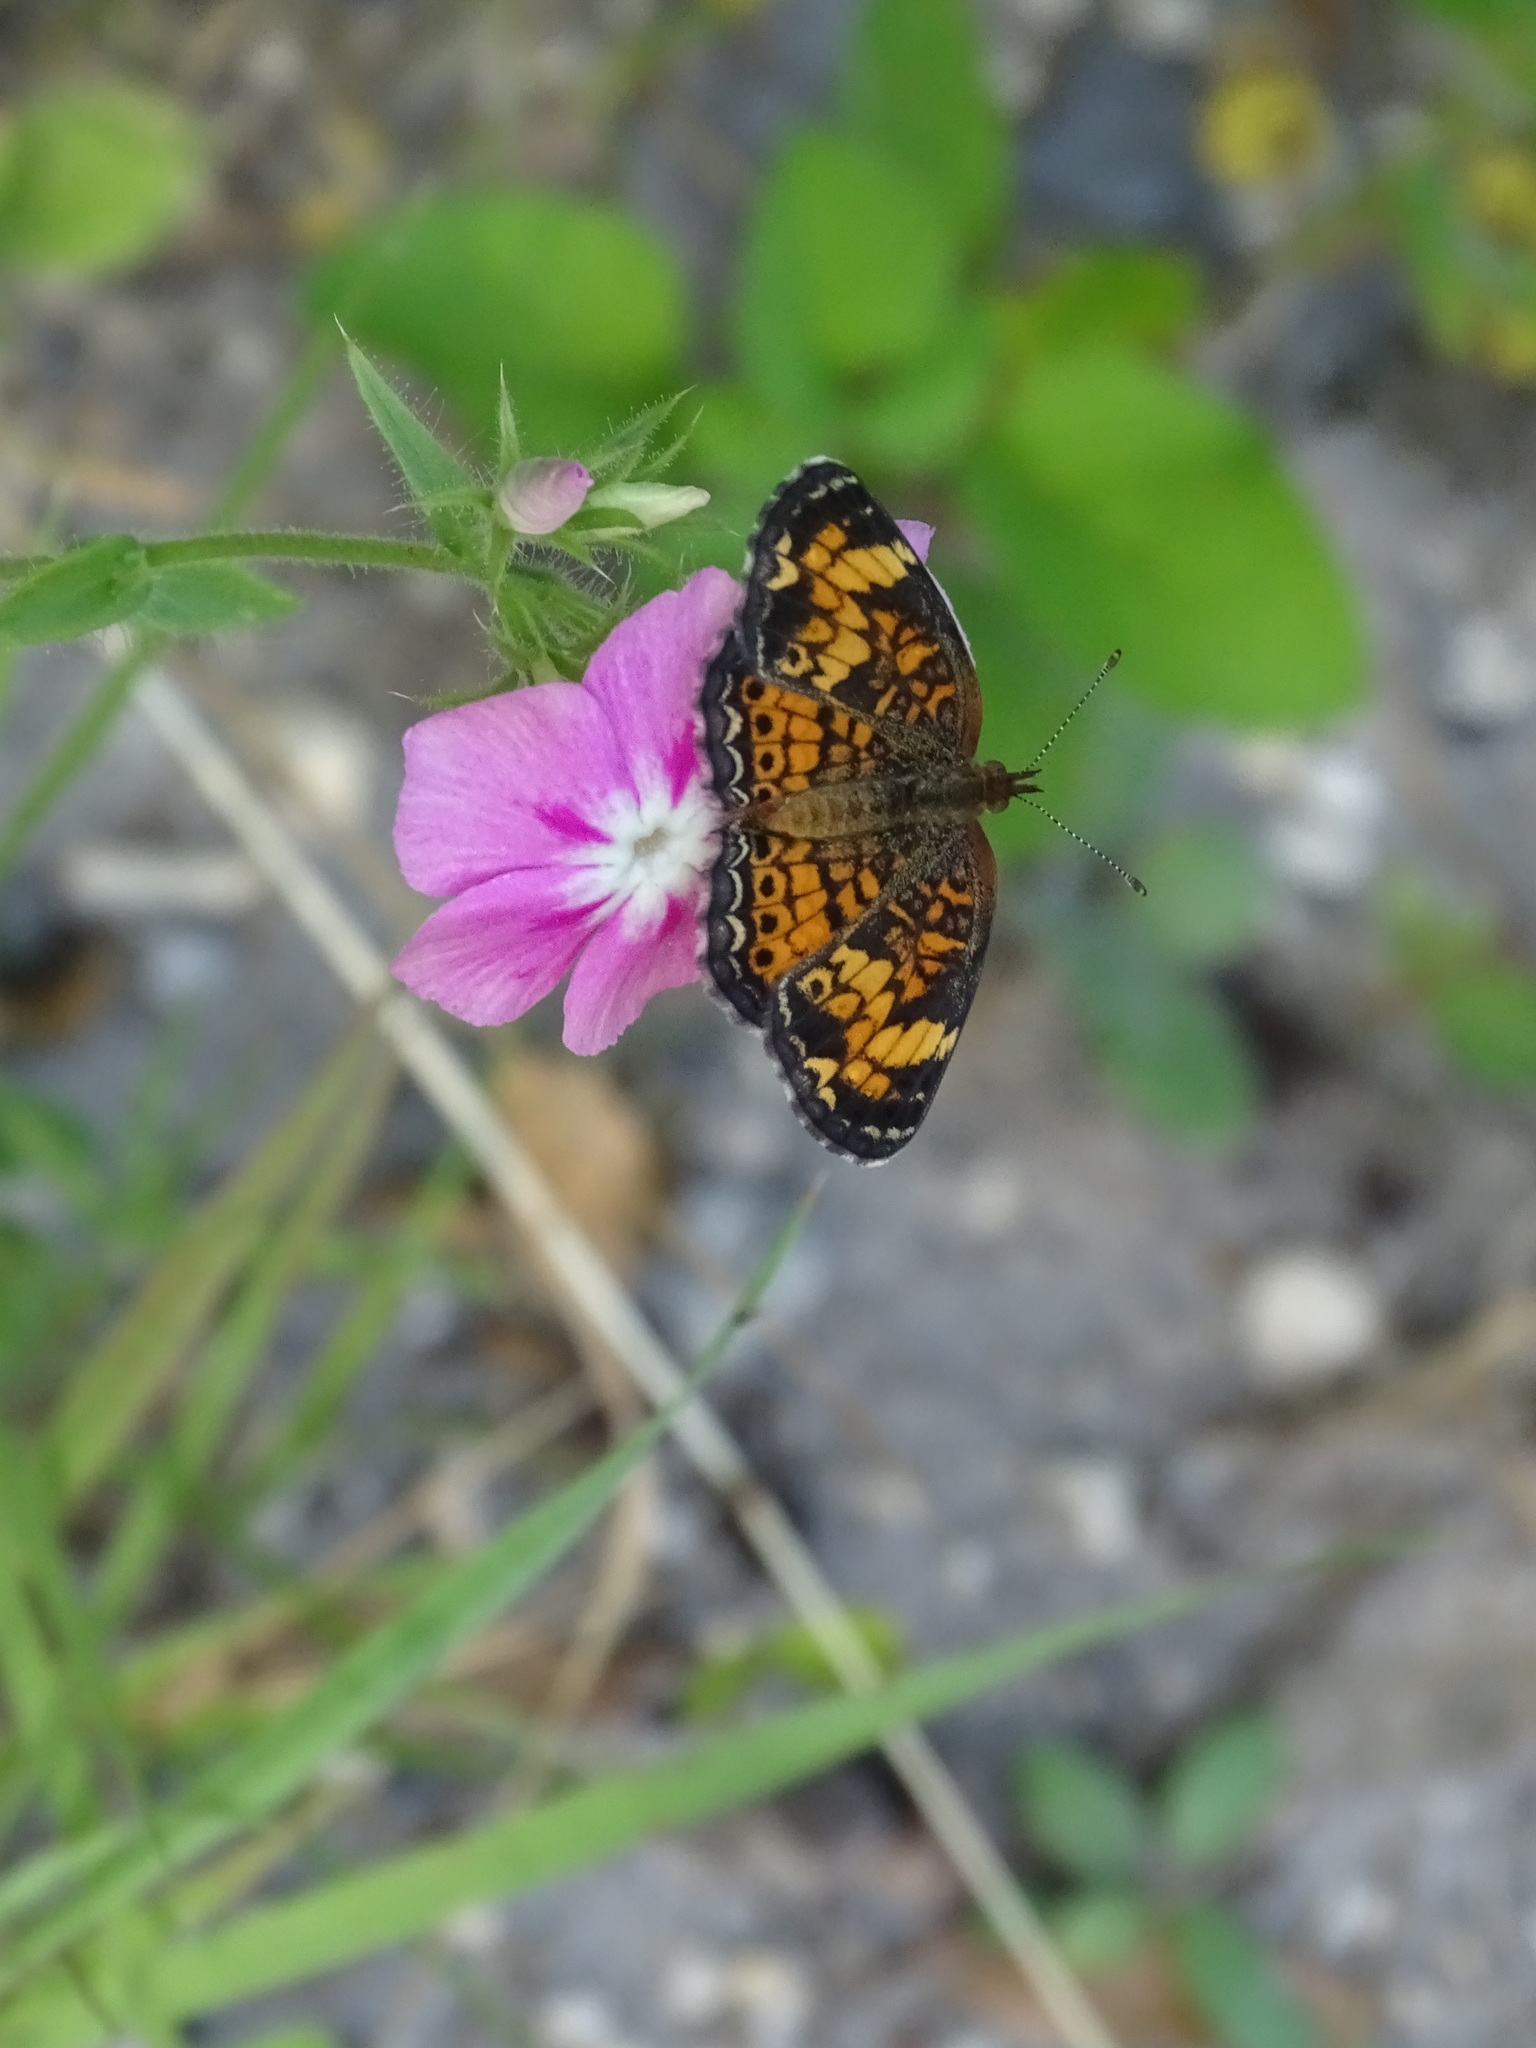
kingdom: Animalia
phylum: Arthropoda
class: Insecta
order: Lepidoptera
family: Nymphalidae
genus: Phyciodes
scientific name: Phyciodes tharos
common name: Pearl crescent
